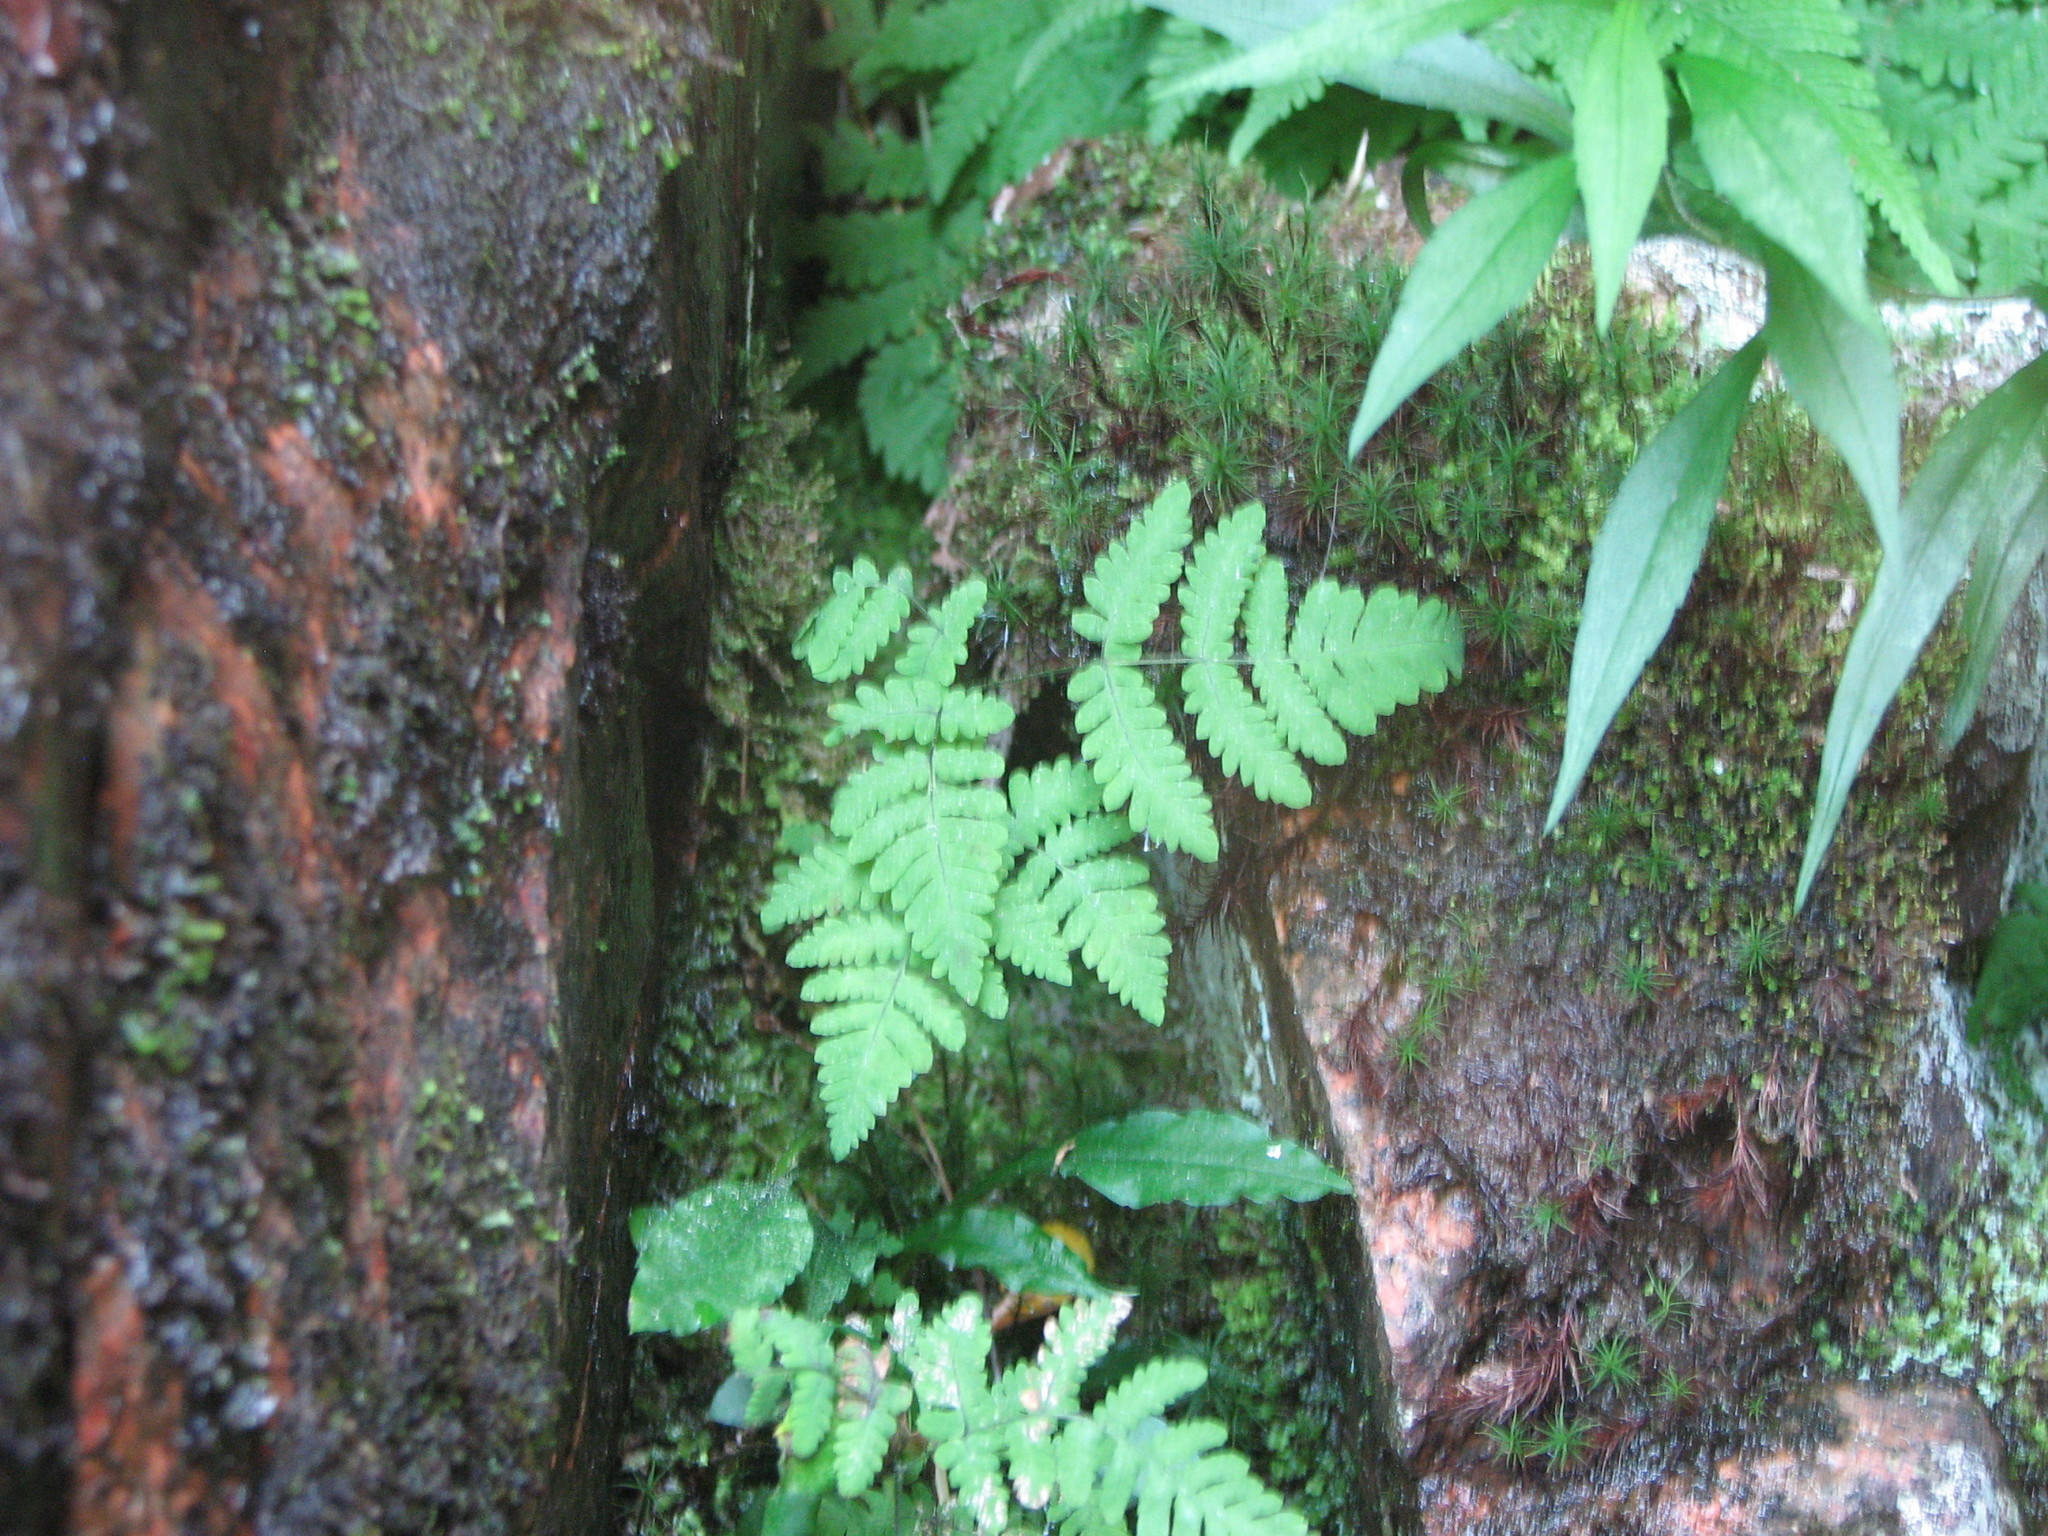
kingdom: Plantae
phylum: Tracheophyta
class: Polypodiopsida
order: Polypodiales
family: Cystopteridaceae
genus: Gymnocarpium
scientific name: Gymnocarpium dryopteris
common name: Oak fern
